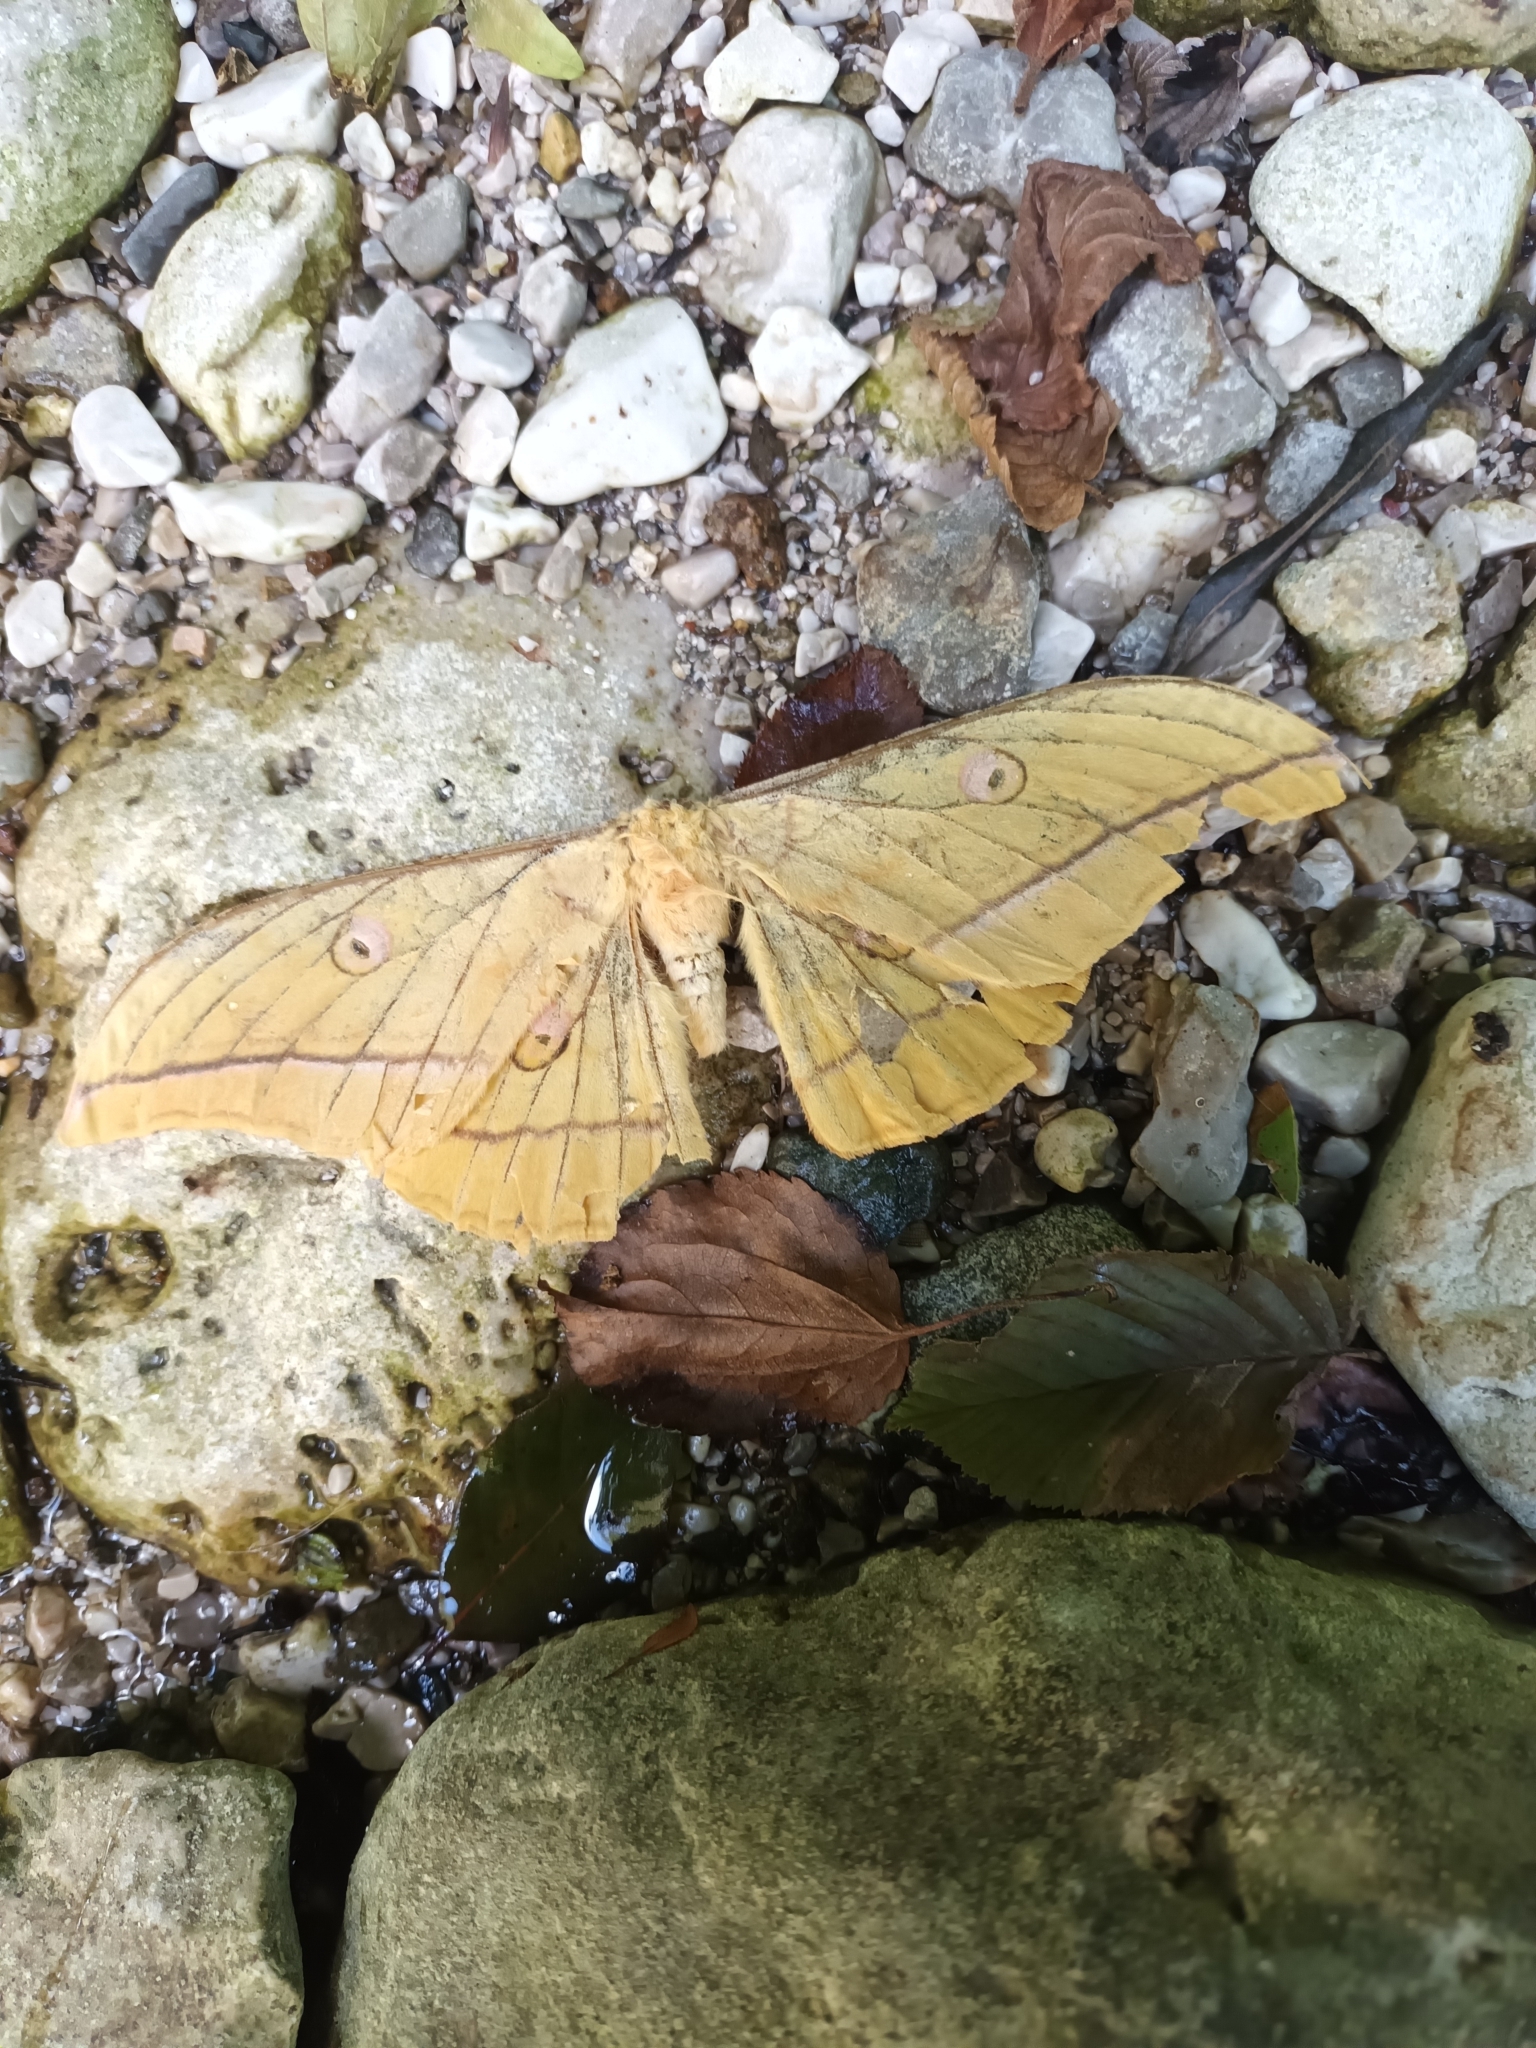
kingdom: Animalia
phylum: Arthropoda
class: Insecta
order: Lepidoptera
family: Saturniidae
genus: Antheraea
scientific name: Antheraea yamamai
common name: Japanese oak silk moth
